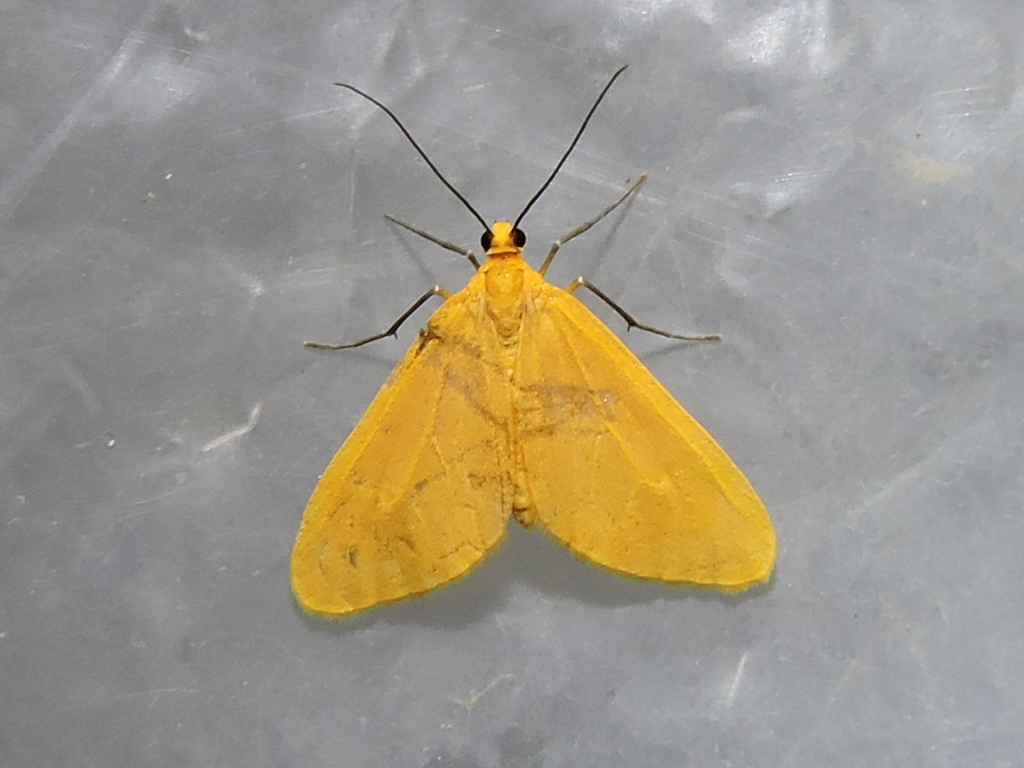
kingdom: Animalia
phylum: Arthropoda
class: Insecta
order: Lepidoptera
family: Geometridae
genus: Eubaphe
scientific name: Eubaphe unicolor
